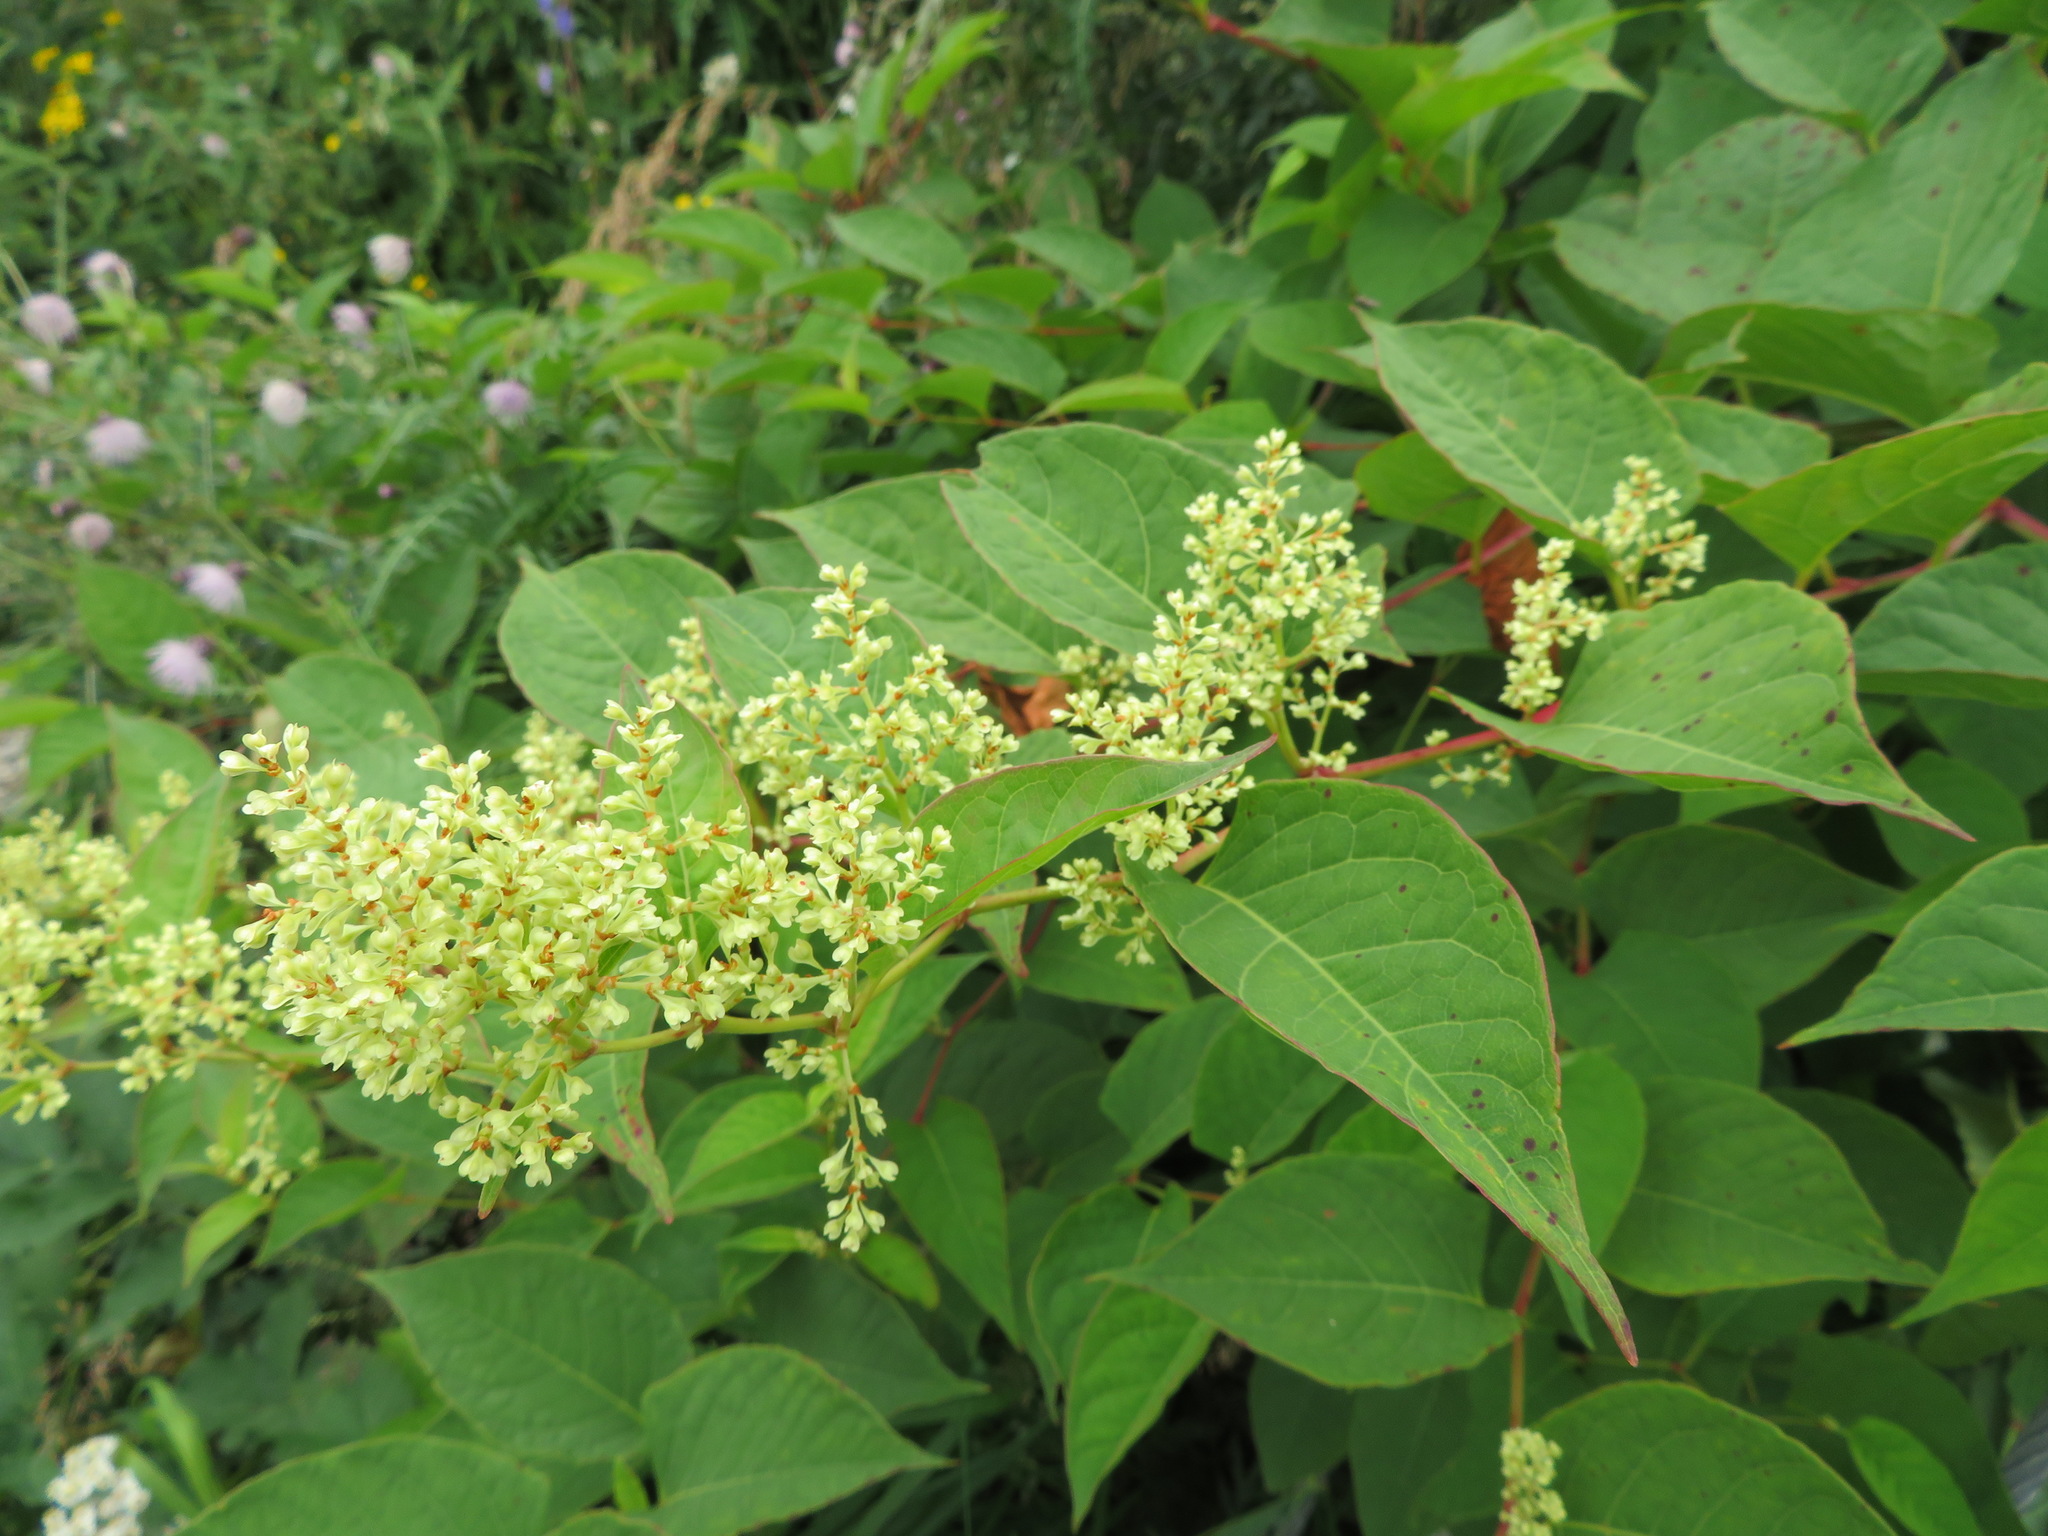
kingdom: Plantae
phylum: Tracheophyta
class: Magnoliopsida
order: Caryophyllales
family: Polygonaceae
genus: Reynoutria
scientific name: Reynoutria japonica
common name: Japanese knotweed
